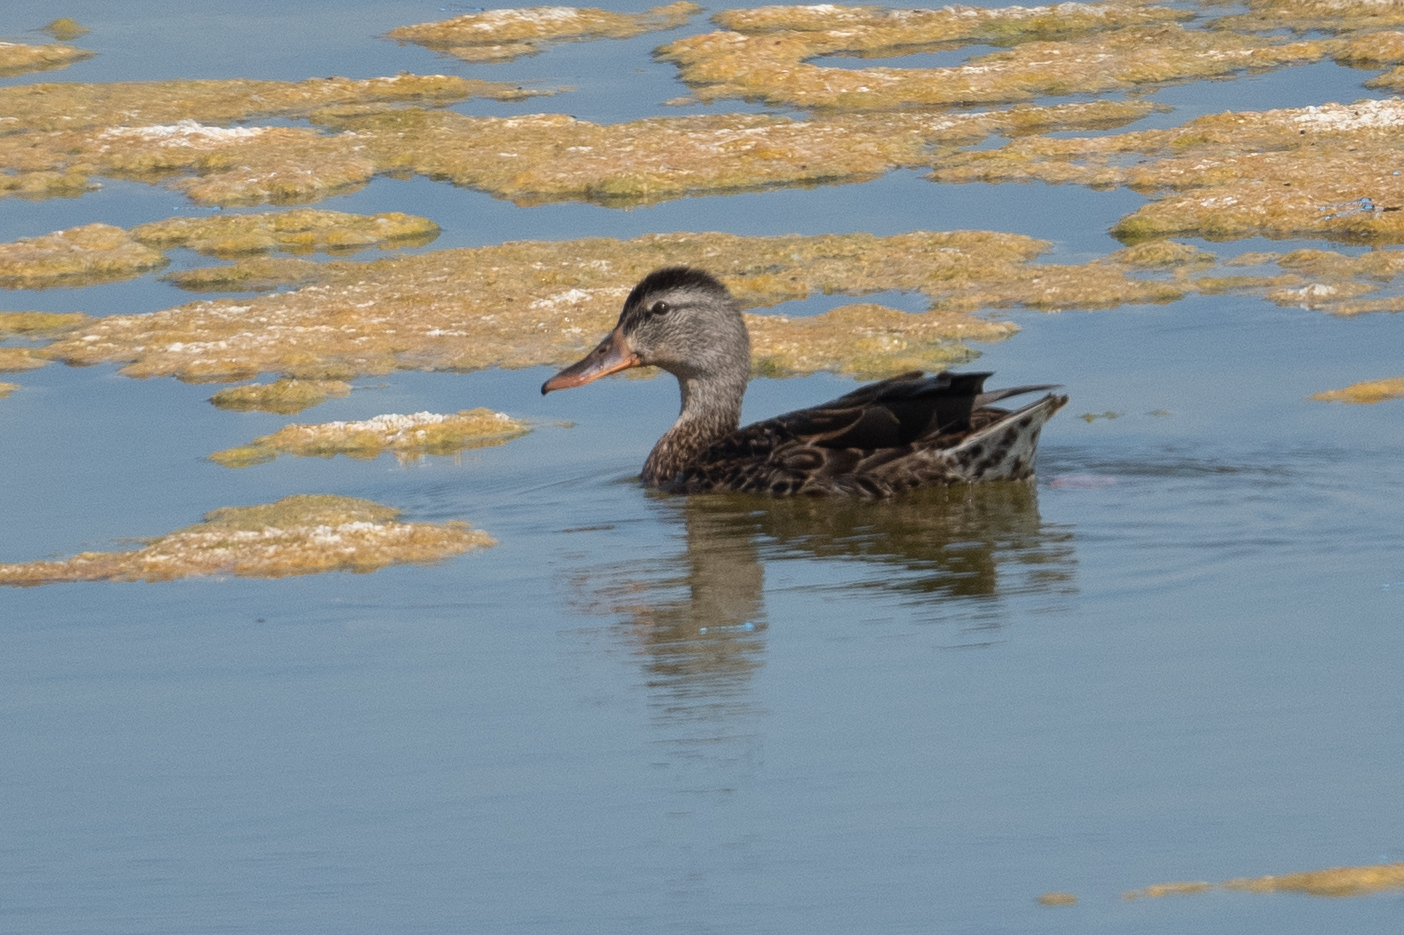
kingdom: Animalia
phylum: Chordata
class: Aves
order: Anseriformes
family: Anatidae
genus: Anas
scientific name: Anas platyrhynchos
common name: Mallard
